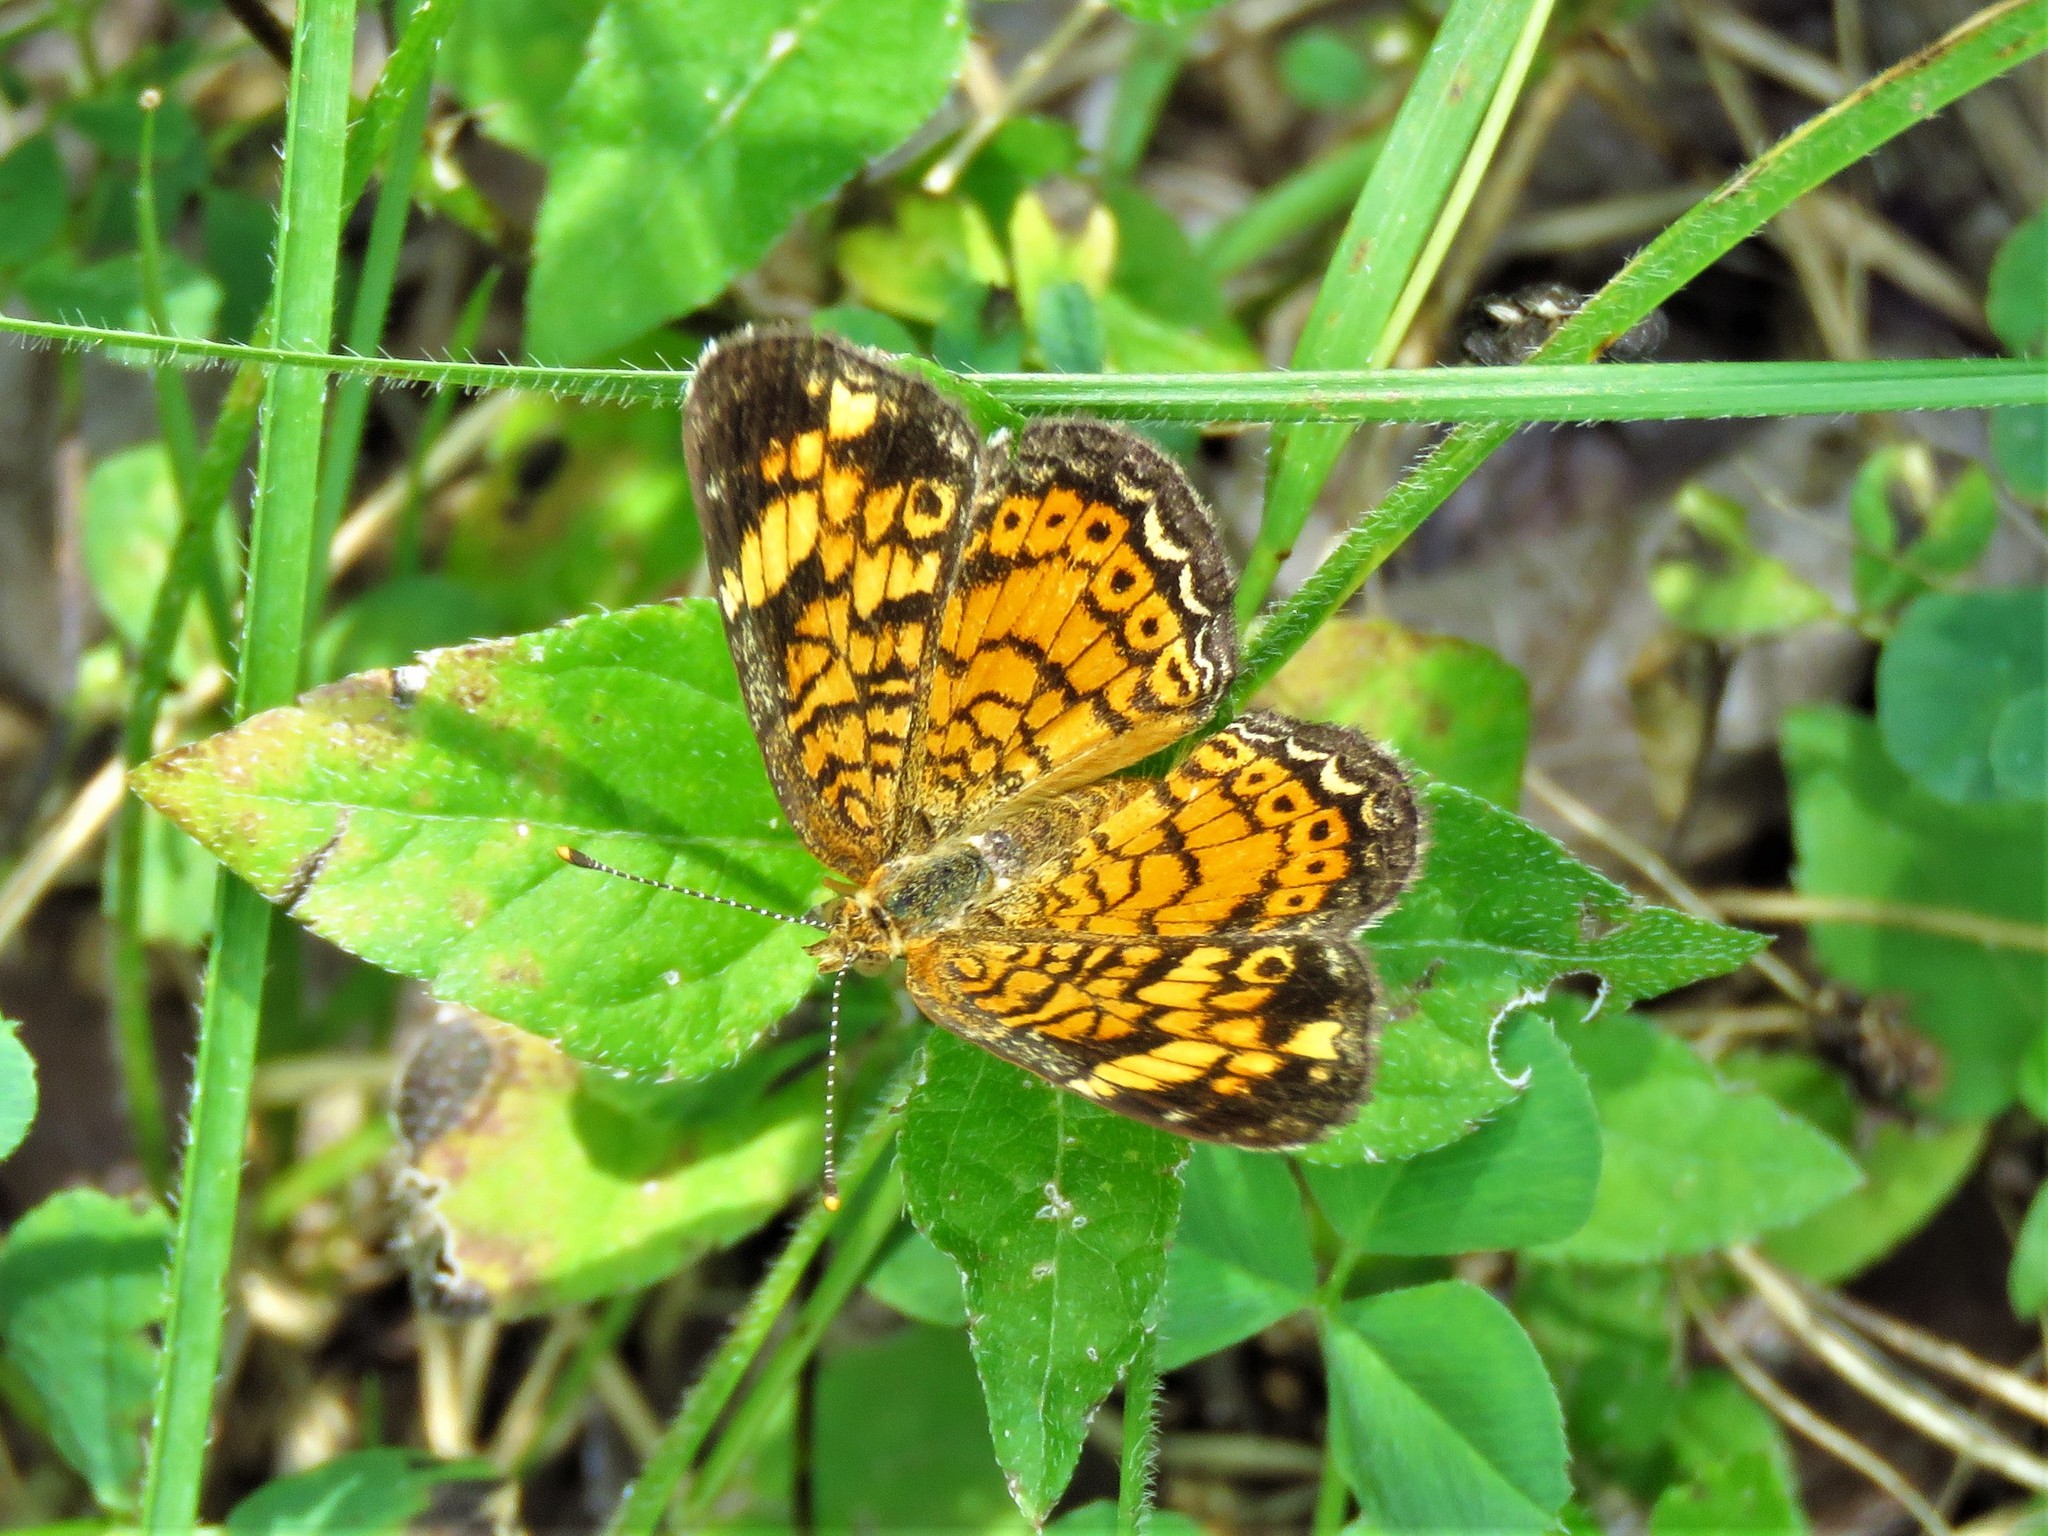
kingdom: Animalia
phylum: Arthropoda
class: Insecta
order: Lepidoptera
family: Nymphalidae
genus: Phyciodes
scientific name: Phyciodes tharos
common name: Pearl crescent
